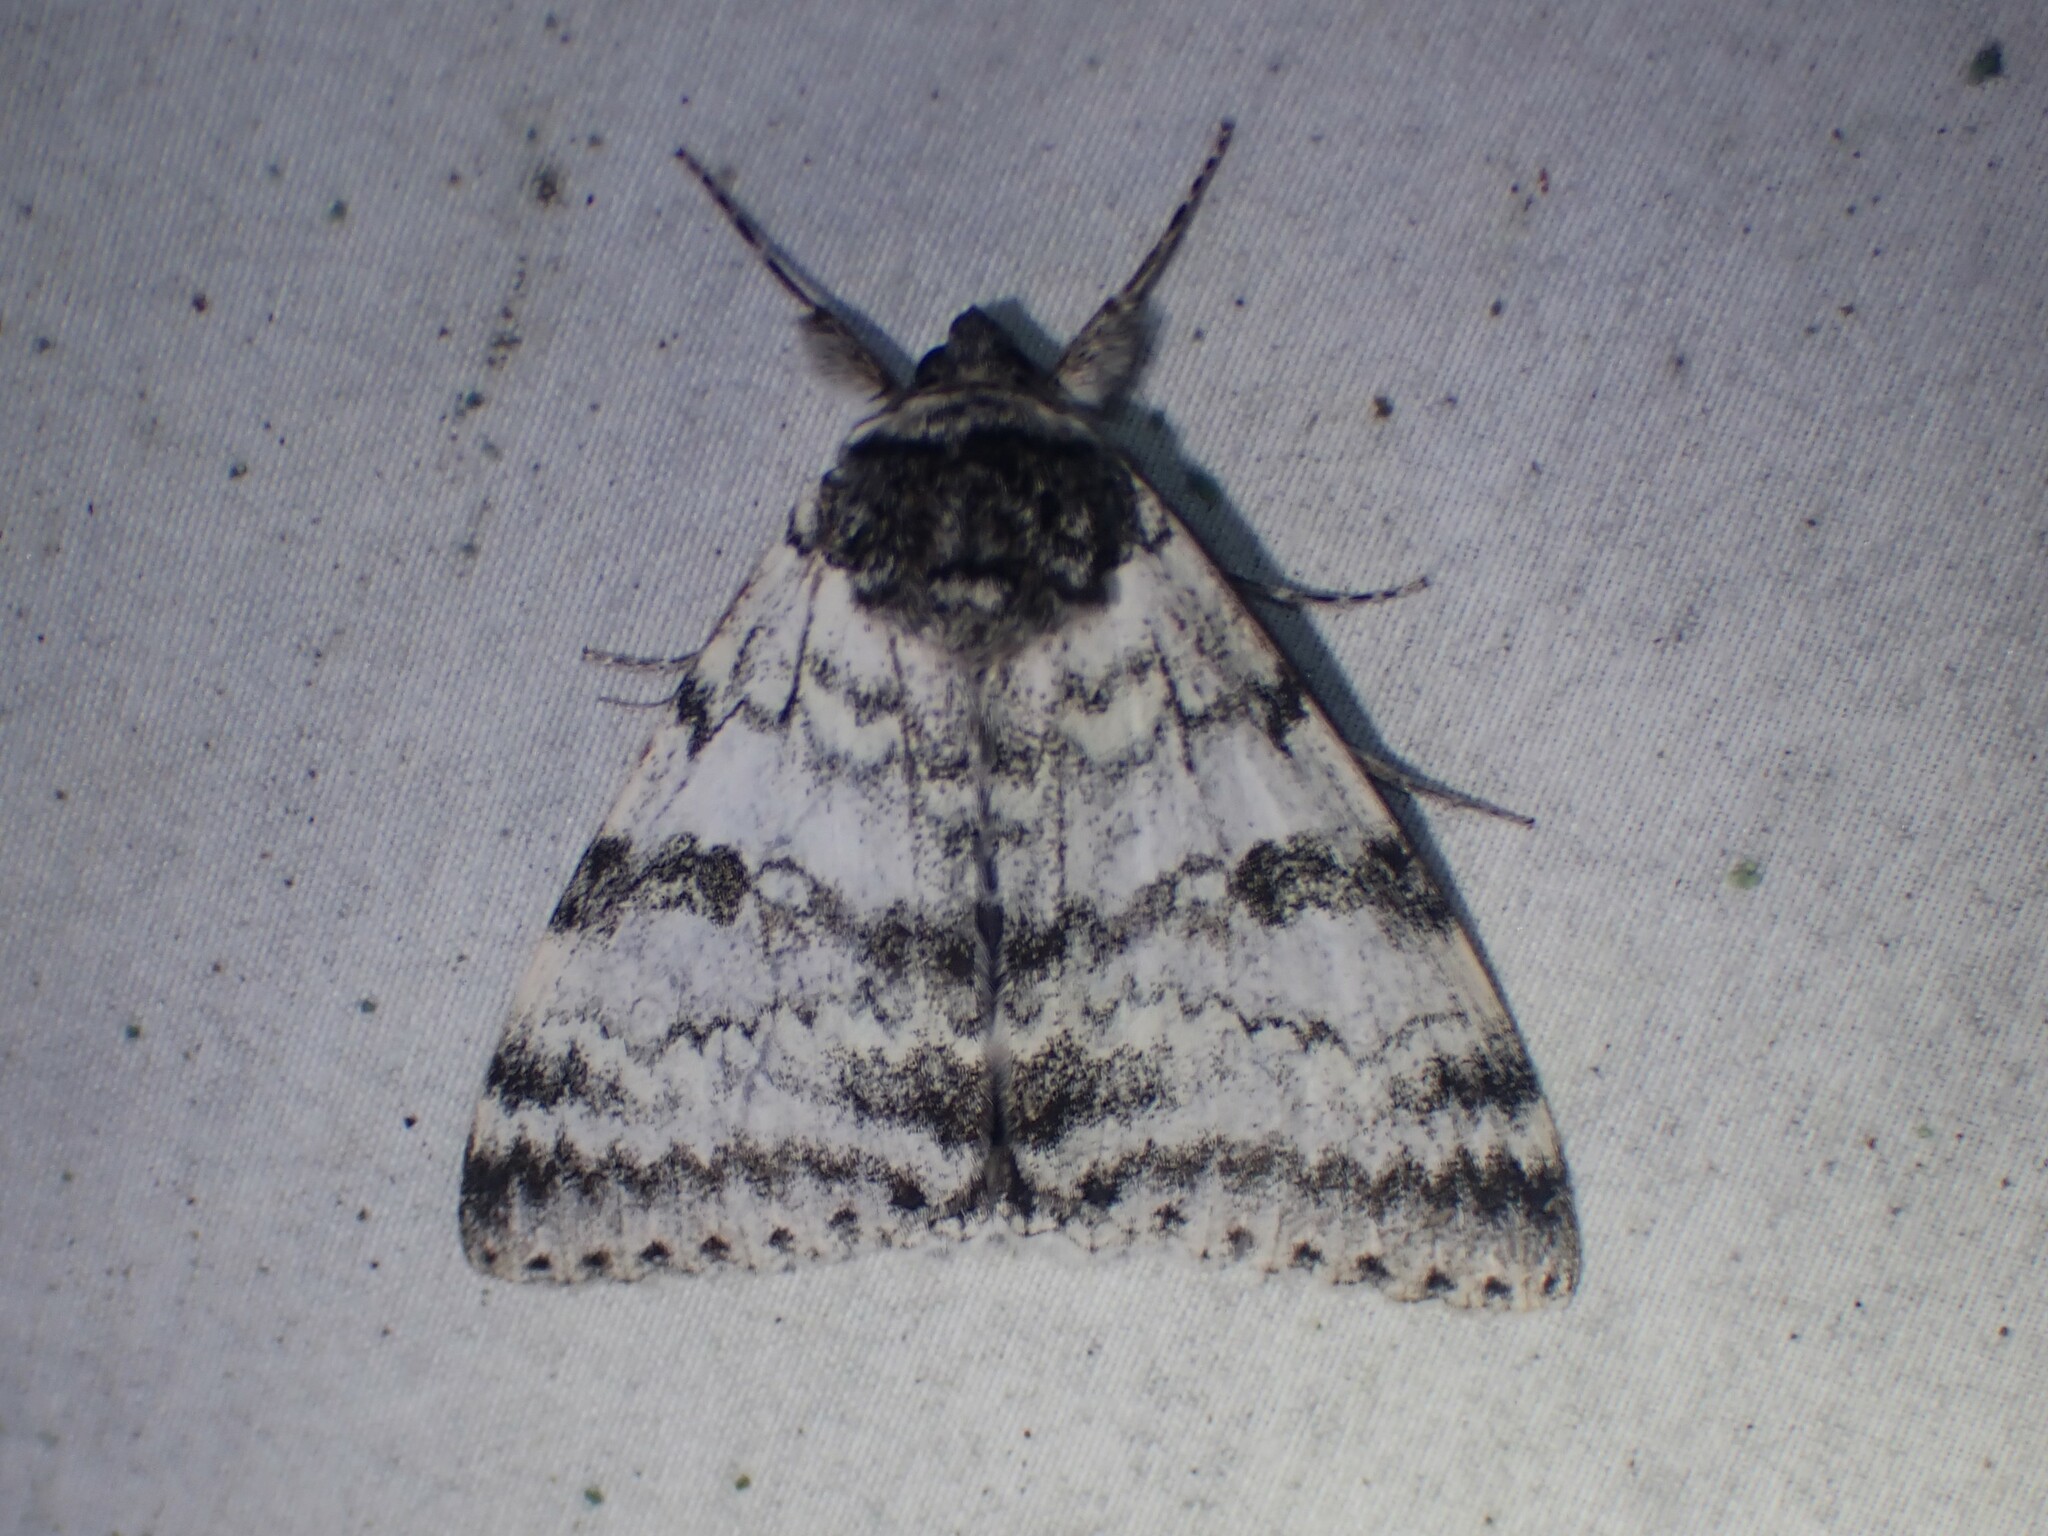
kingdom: Animalia
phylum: Arthropoda
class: Insecta
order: Lepidoptera
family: Erebidae
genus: Catocala
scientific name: Catocala relicta
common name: White underwing
